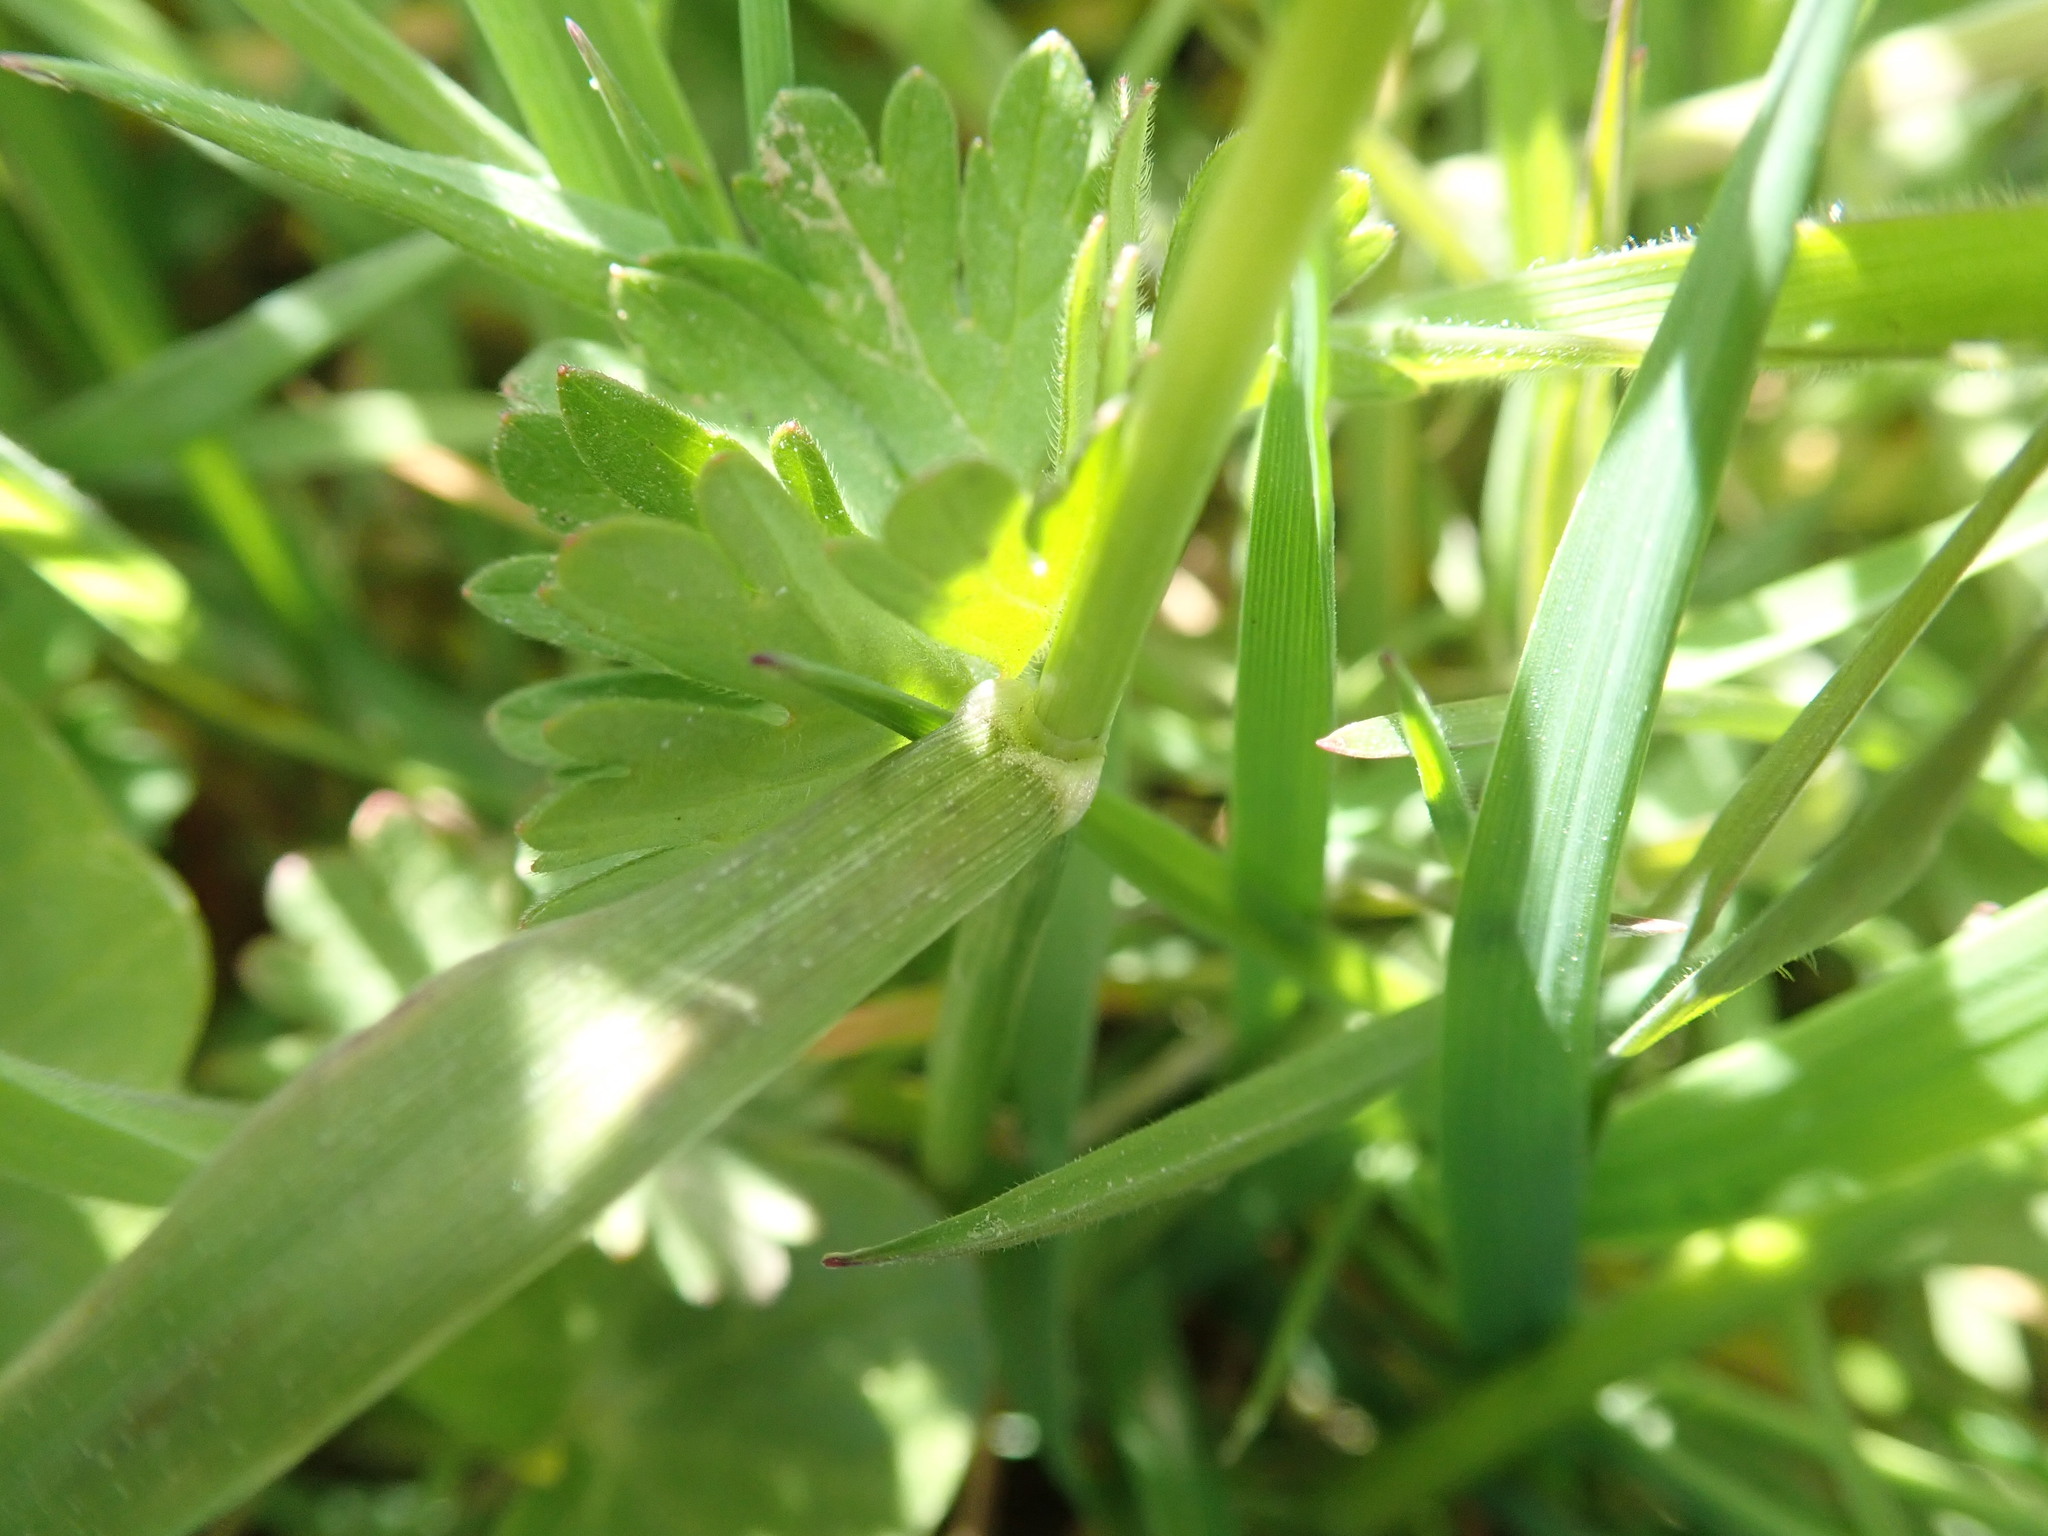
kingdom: Plantae
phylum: Tracheophyta
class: Liliopsida
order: Poales
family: Poaceae
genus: Alopecurus
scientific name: Alopecurus pratensis
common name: Meadow foxtail
